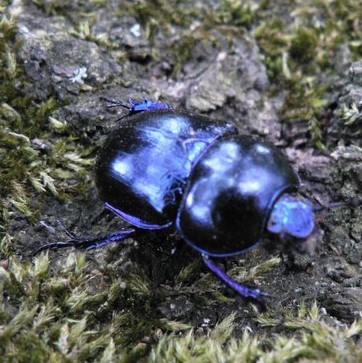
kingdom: Animalia
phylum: Arthropoda
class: Insecta
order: Coleoptera
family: Geotrupidae
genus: Trypocopris
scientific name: Trypocopris vernalis
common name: Spring dumbledor
